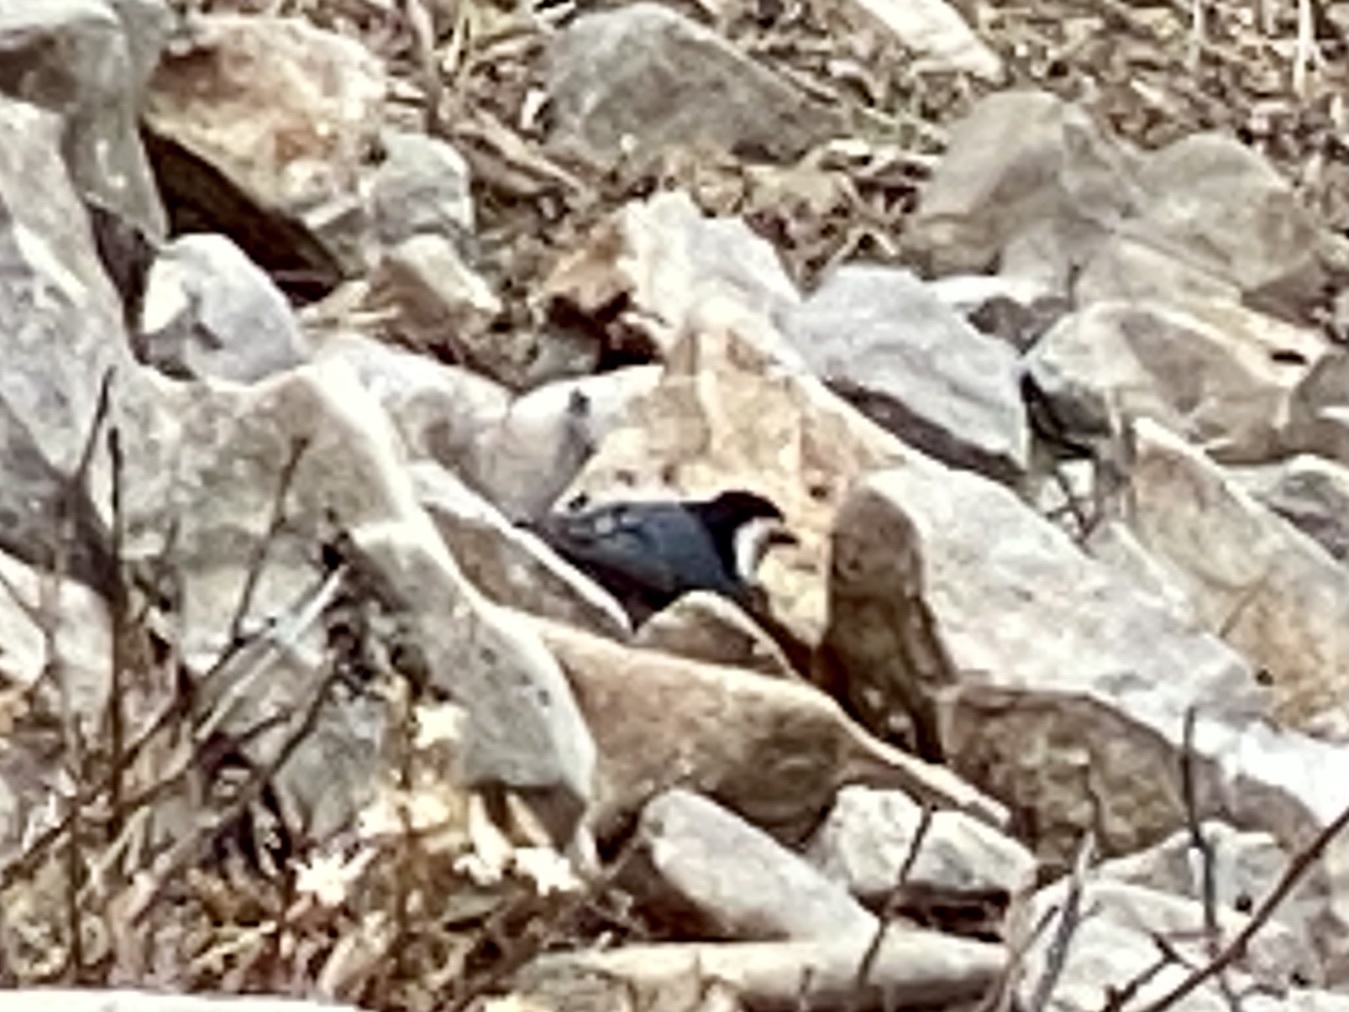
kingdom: Animalia
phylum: Chordata
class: Aves
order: Passeriformes
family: Sittidae
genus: Sitta
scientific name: Sitta carolinensis
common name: White-breasted nuthatch
